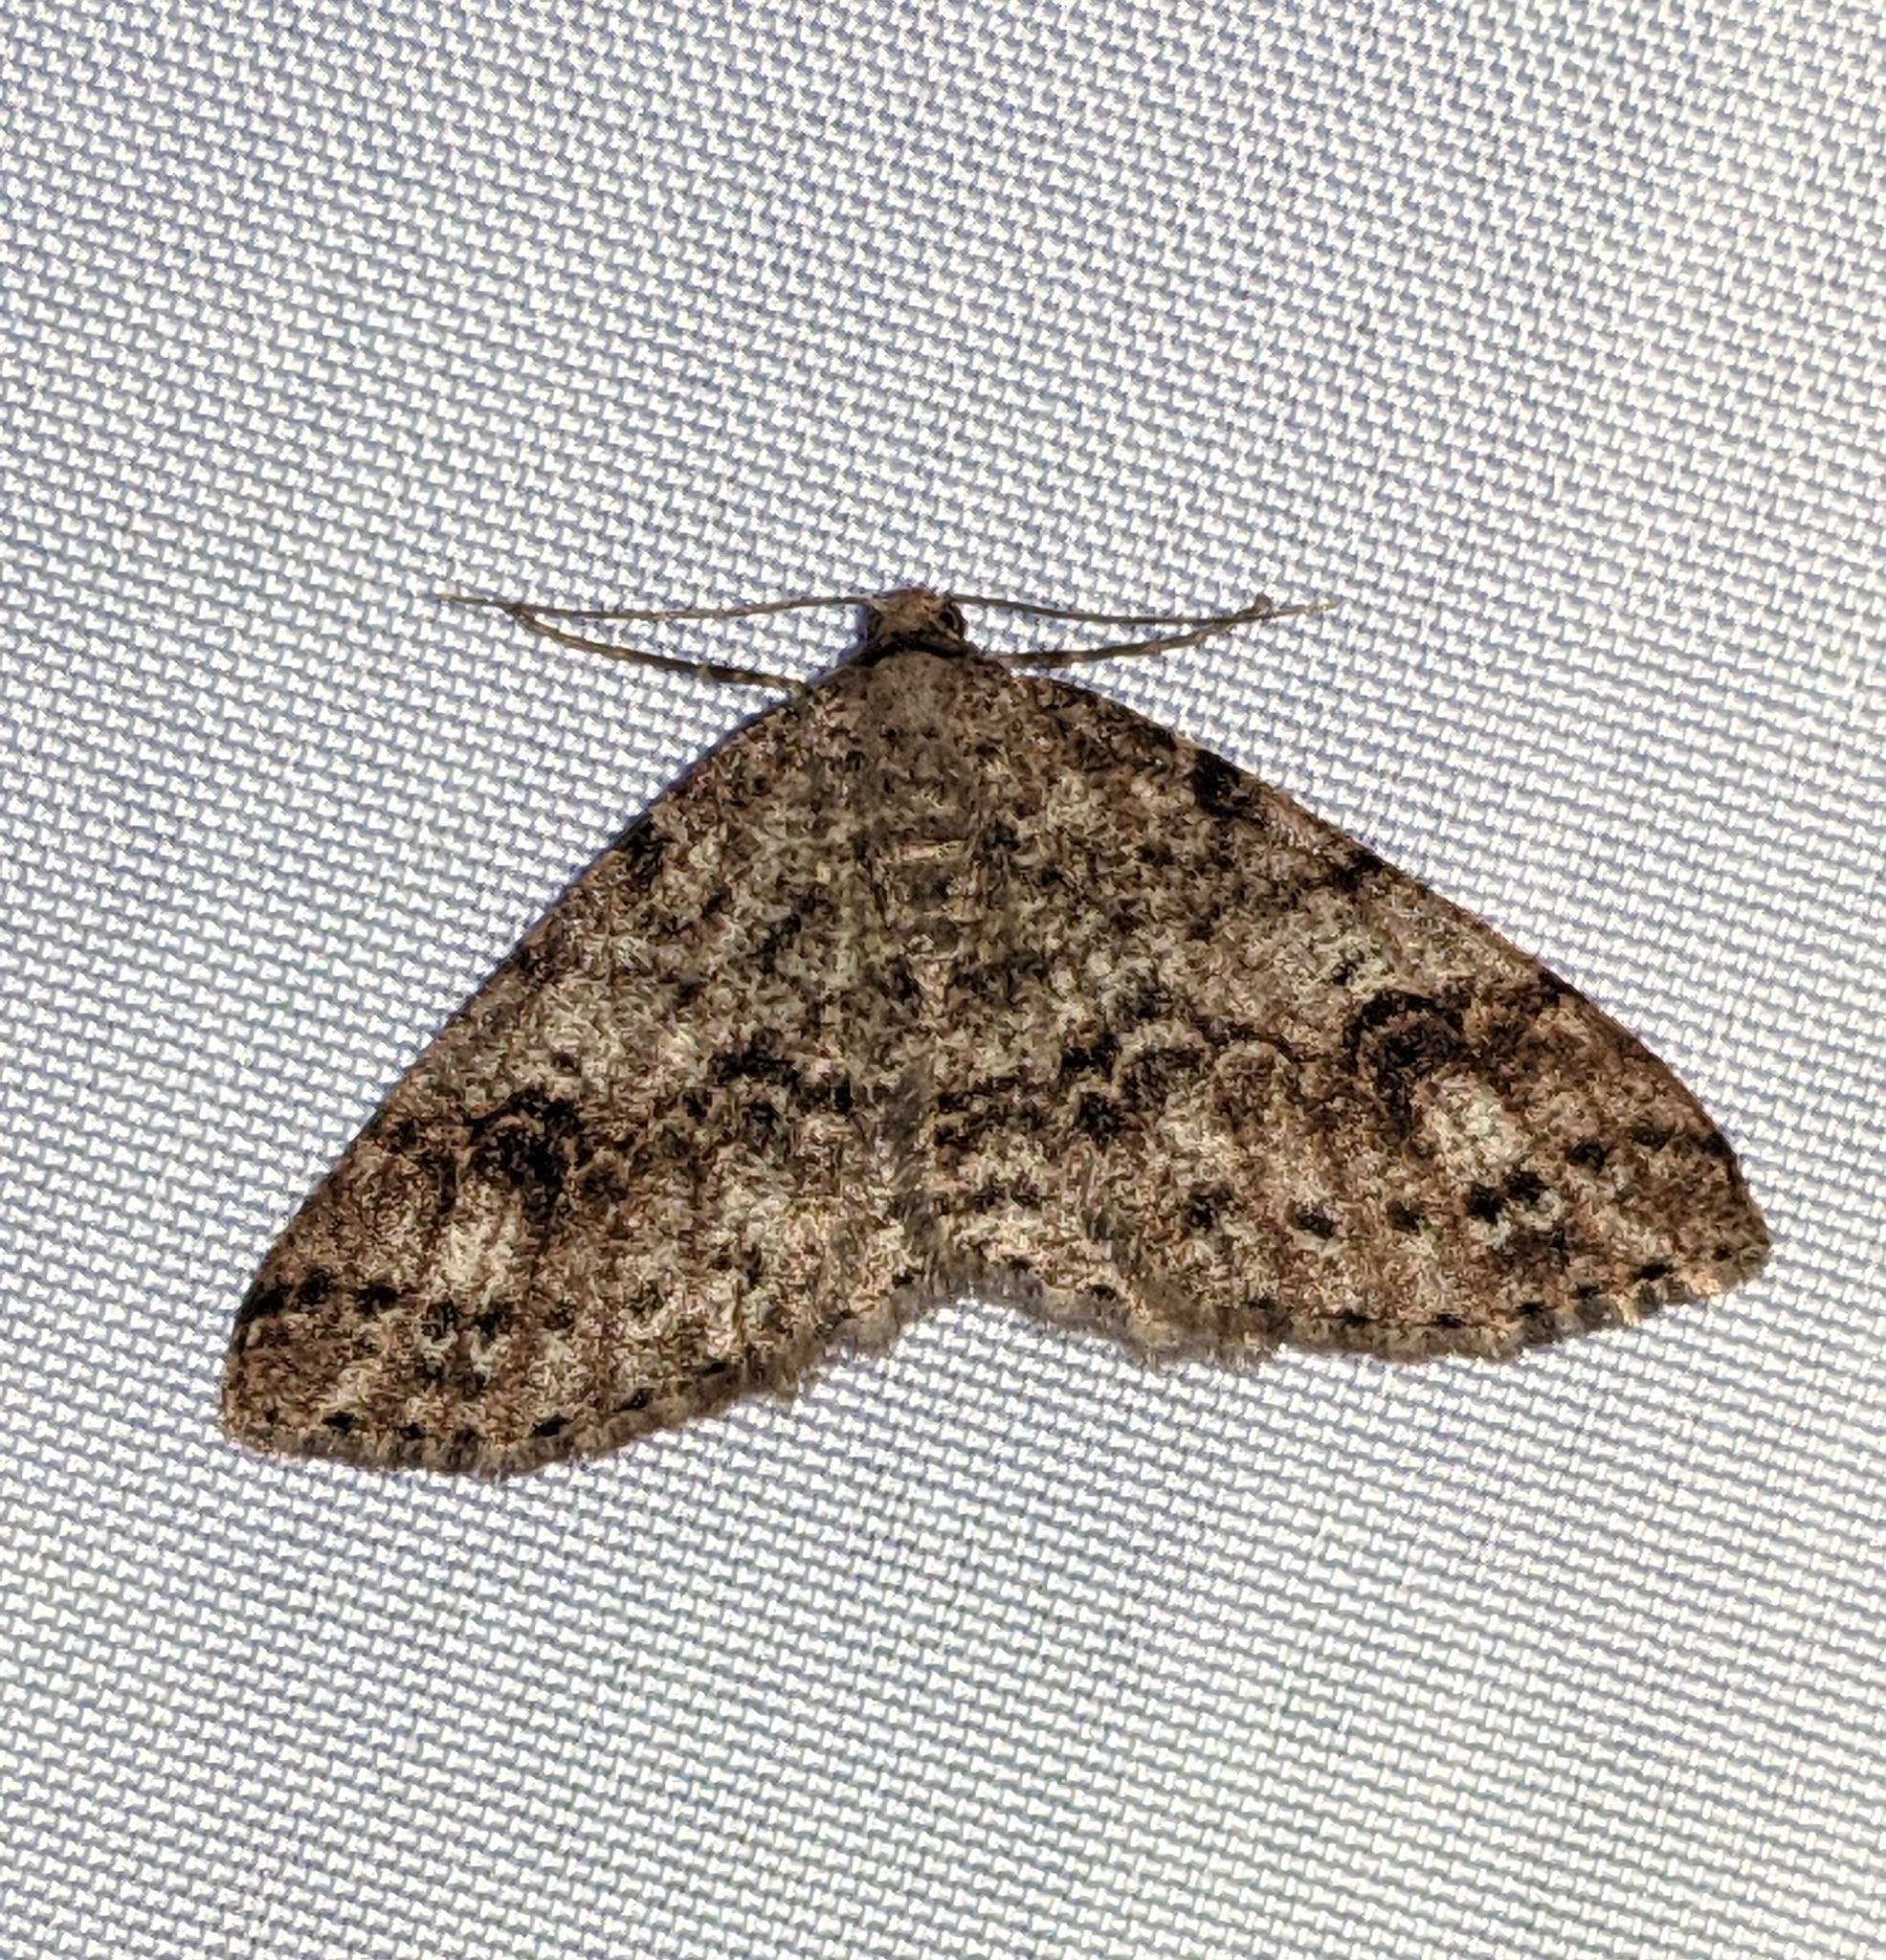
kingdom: Animalia
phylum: Arthropoda
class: Insecta
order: Lepidoptera
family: Geometridae
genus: Melanolophia
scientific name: Melanolophia imitata
